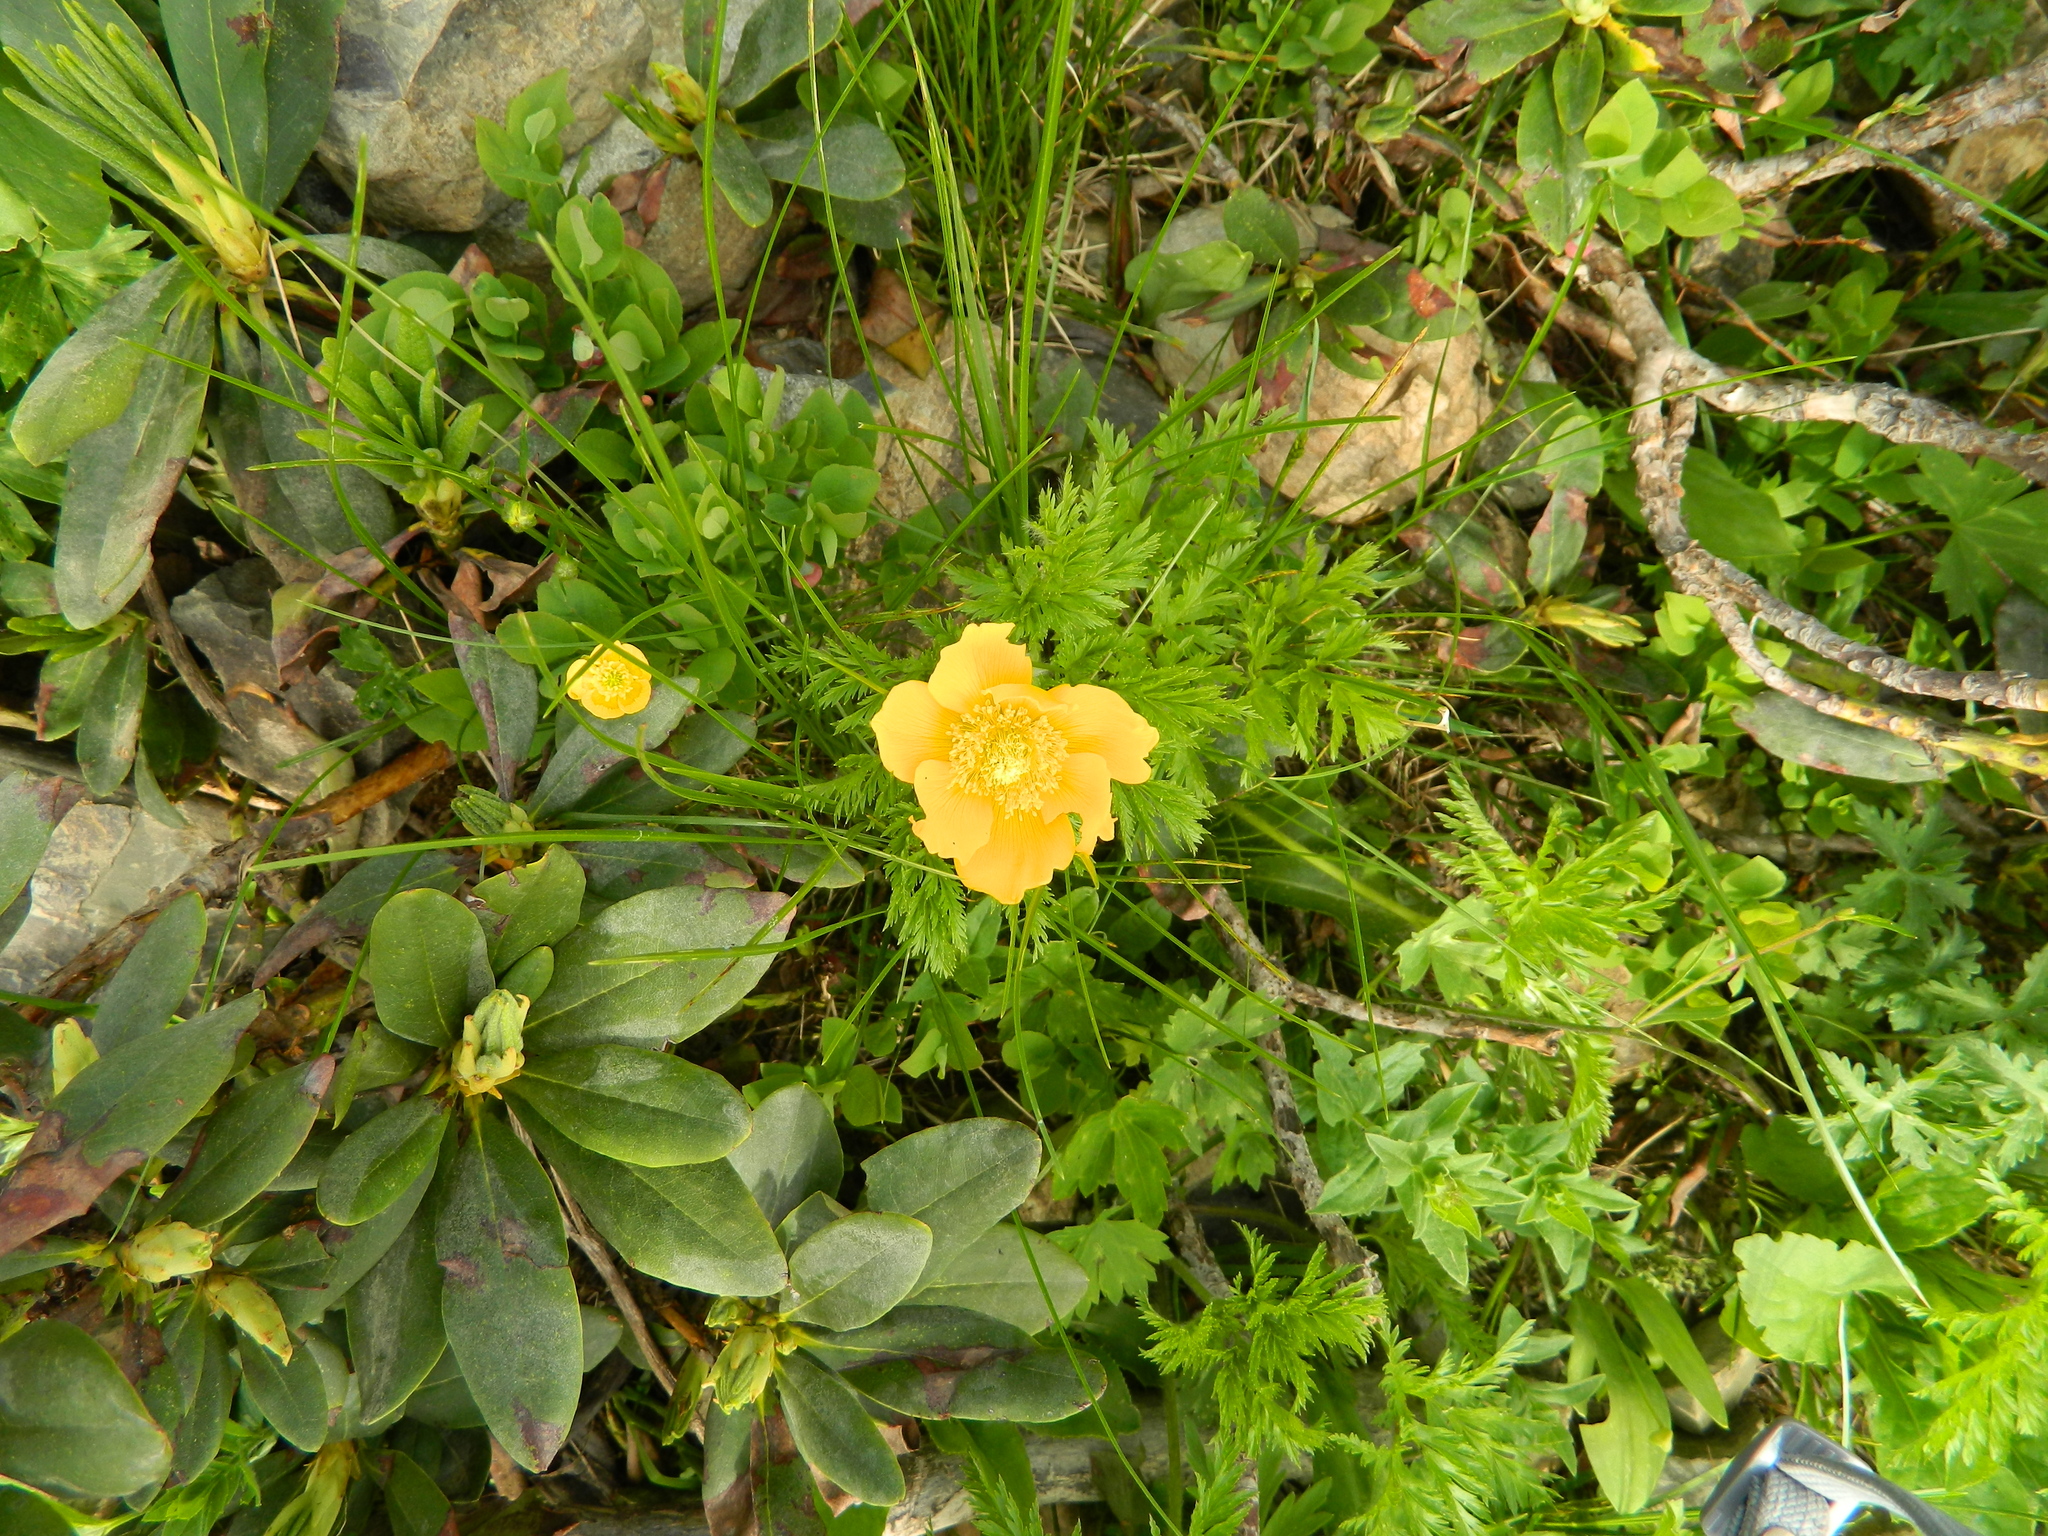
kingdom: Plantae
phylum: Tracheophyta
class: Magnoliopsida
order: Ranunculales
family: Ranunculaceae
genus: Pulsatilla
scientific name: Pulsatilla aurea
